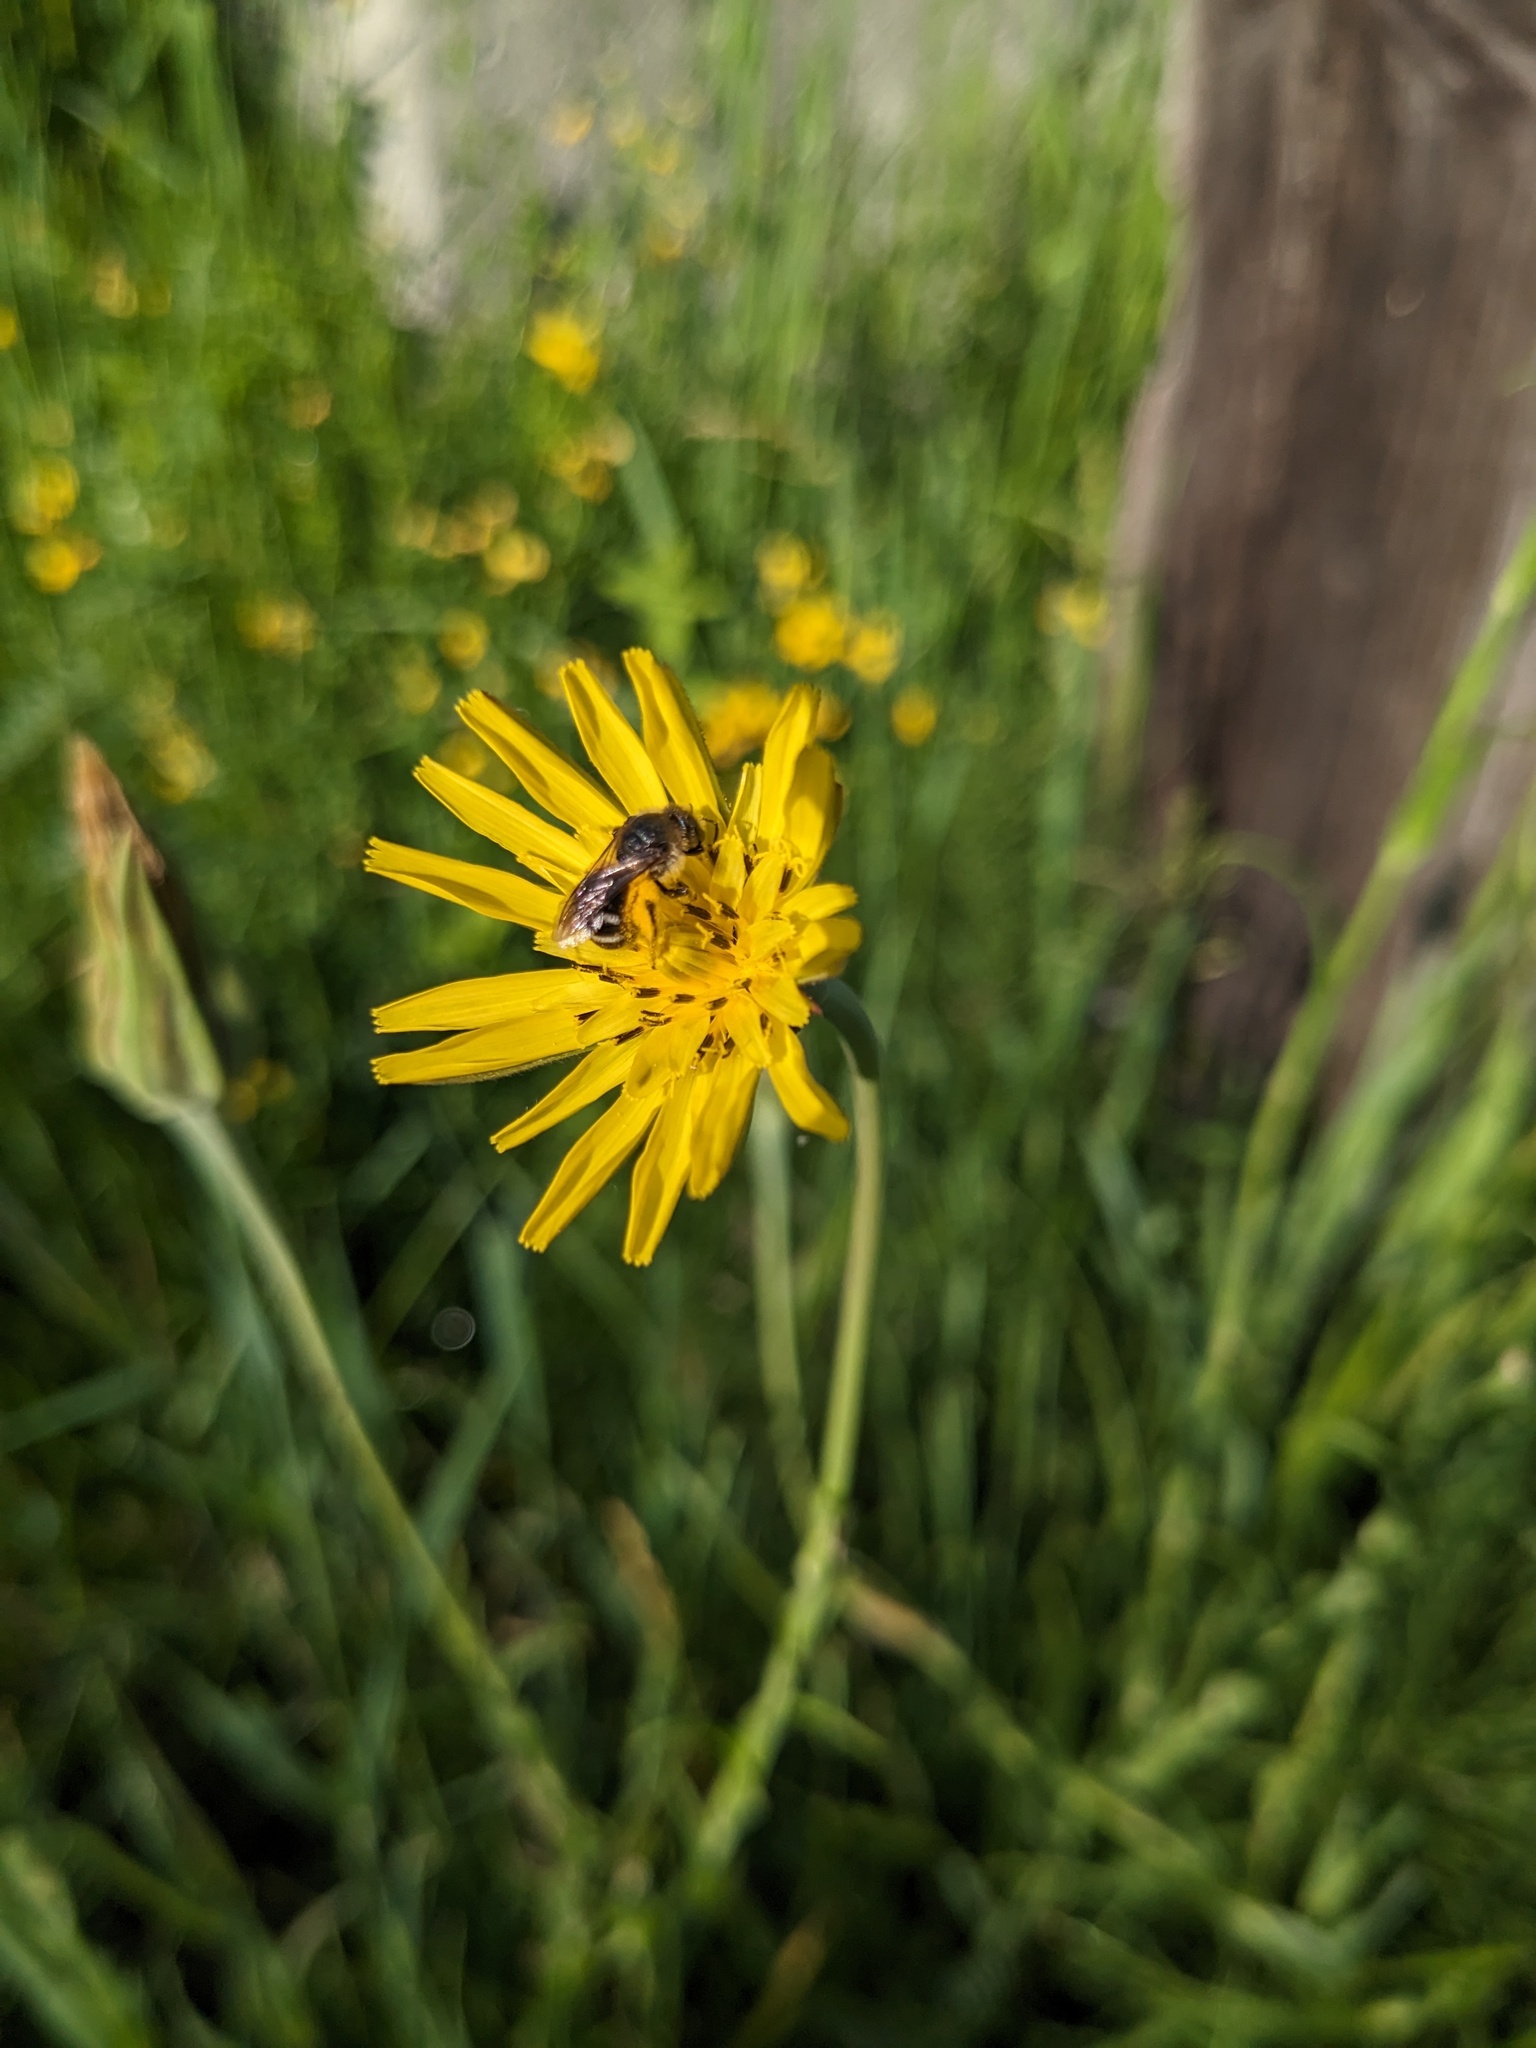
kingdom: Plantae
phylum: Tracheophyta
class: Magnoliopsida
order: Asterales
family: Asteraceae
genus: Tragopogon
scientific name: Tragopogon pratensis
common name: Goat's-beard
